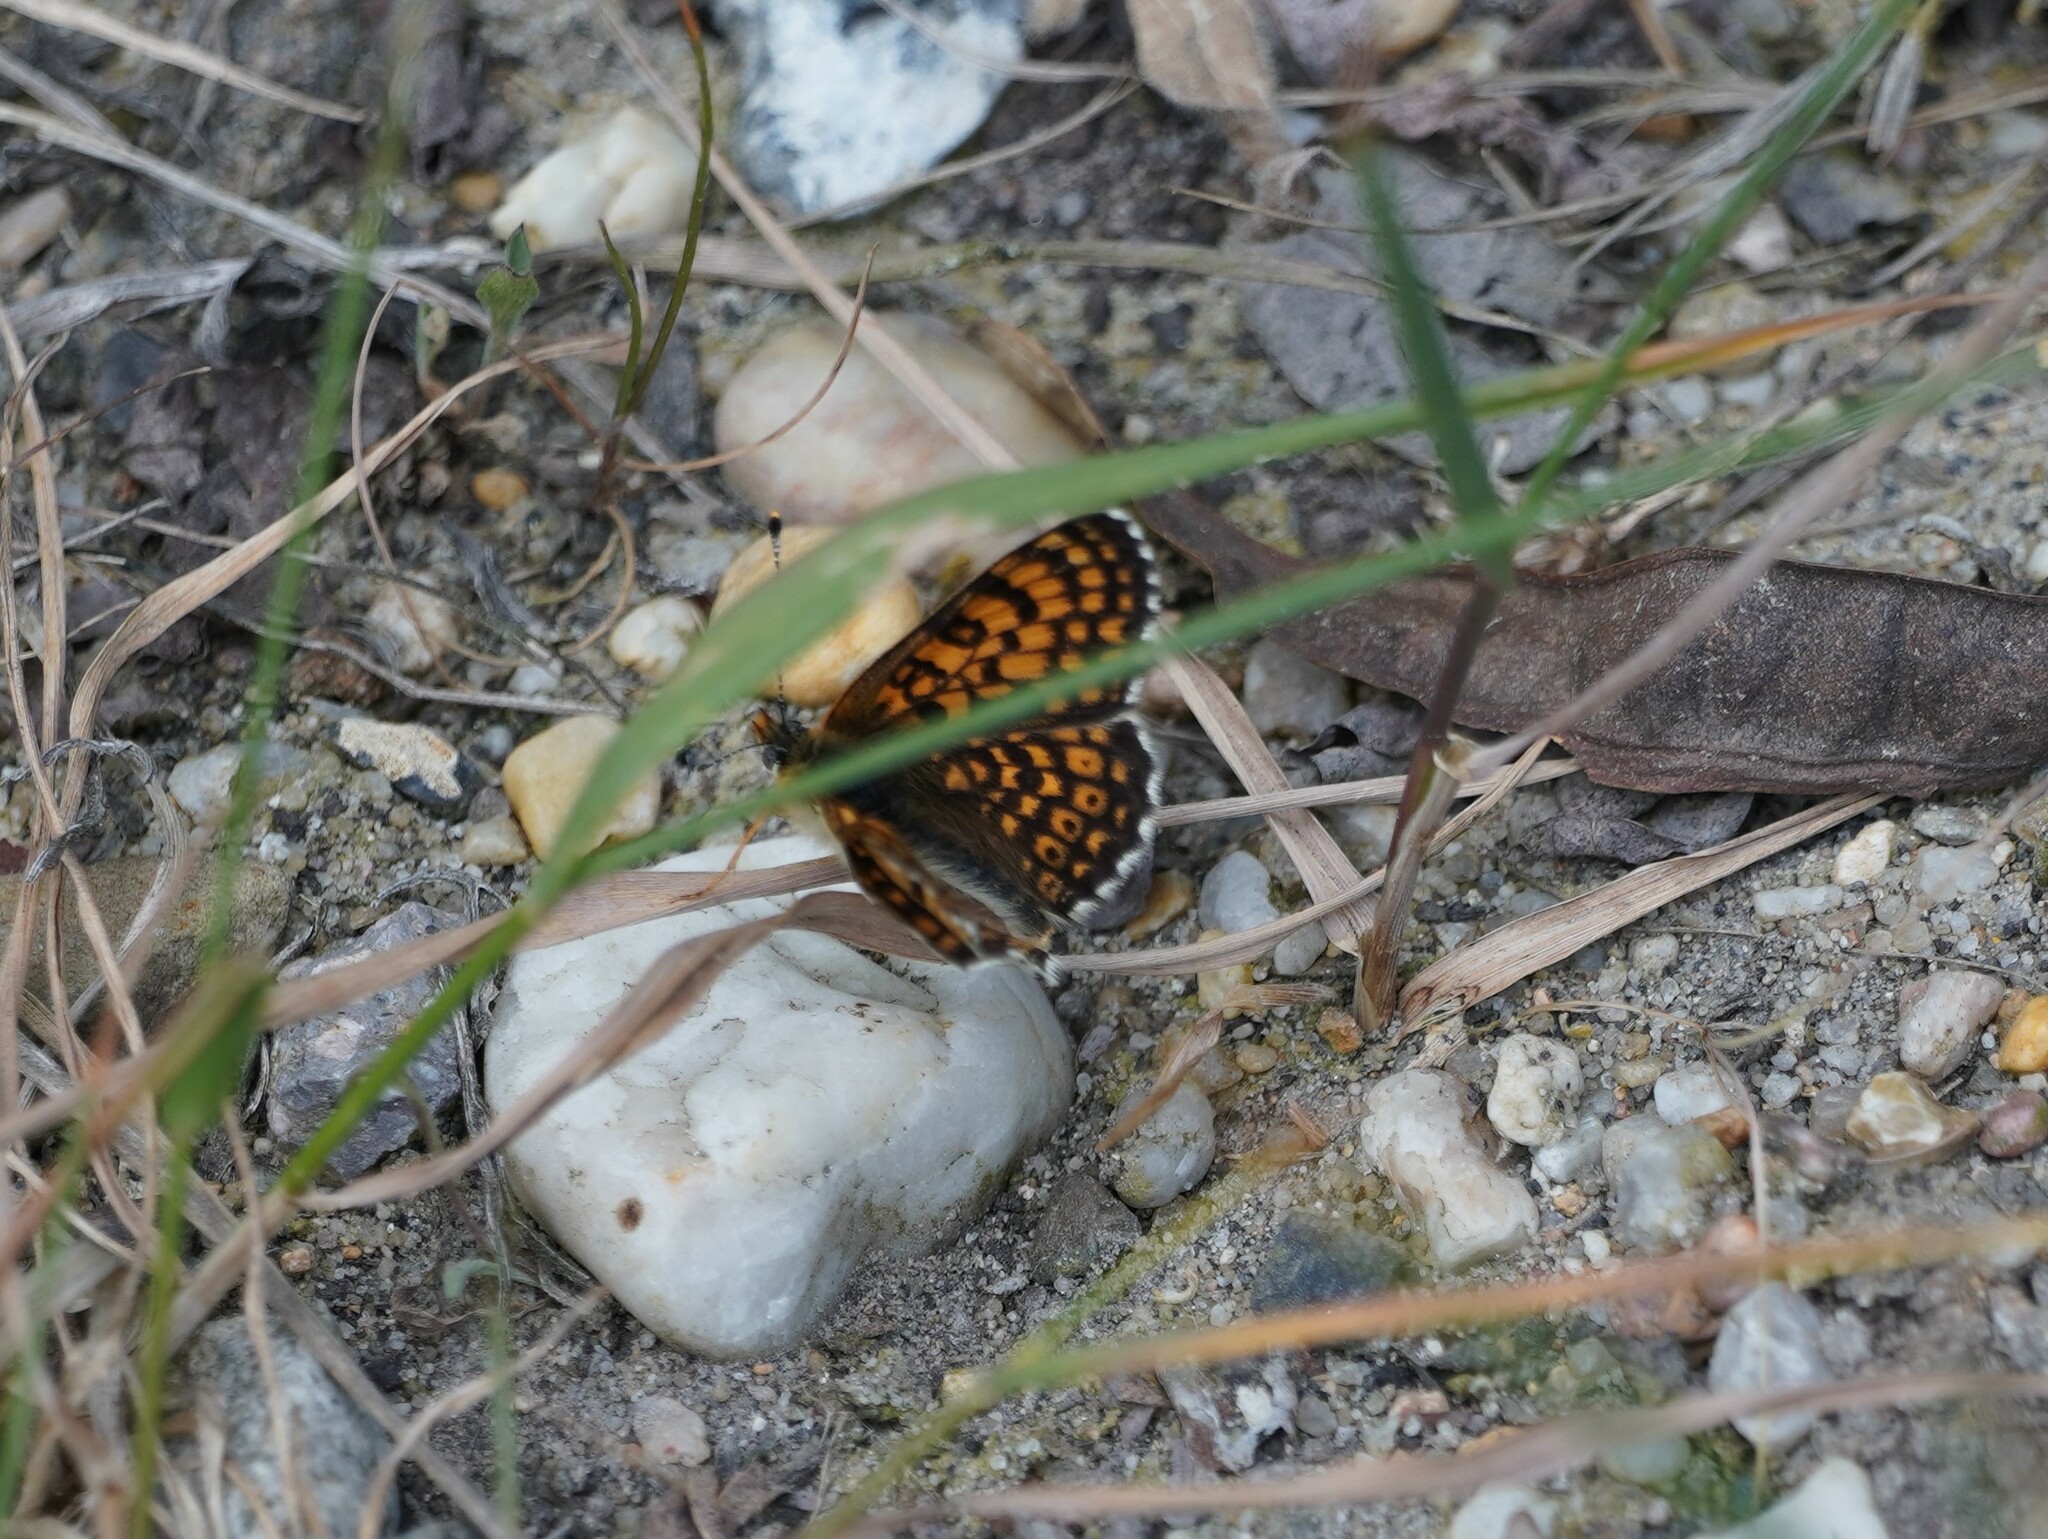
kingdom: Animalia
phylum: Arthropoda
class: Insecta
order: Lepidoptera
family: Nymphalidae
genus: Melitaea
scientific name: Melitaea cinxia
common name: Glanville fritillary
